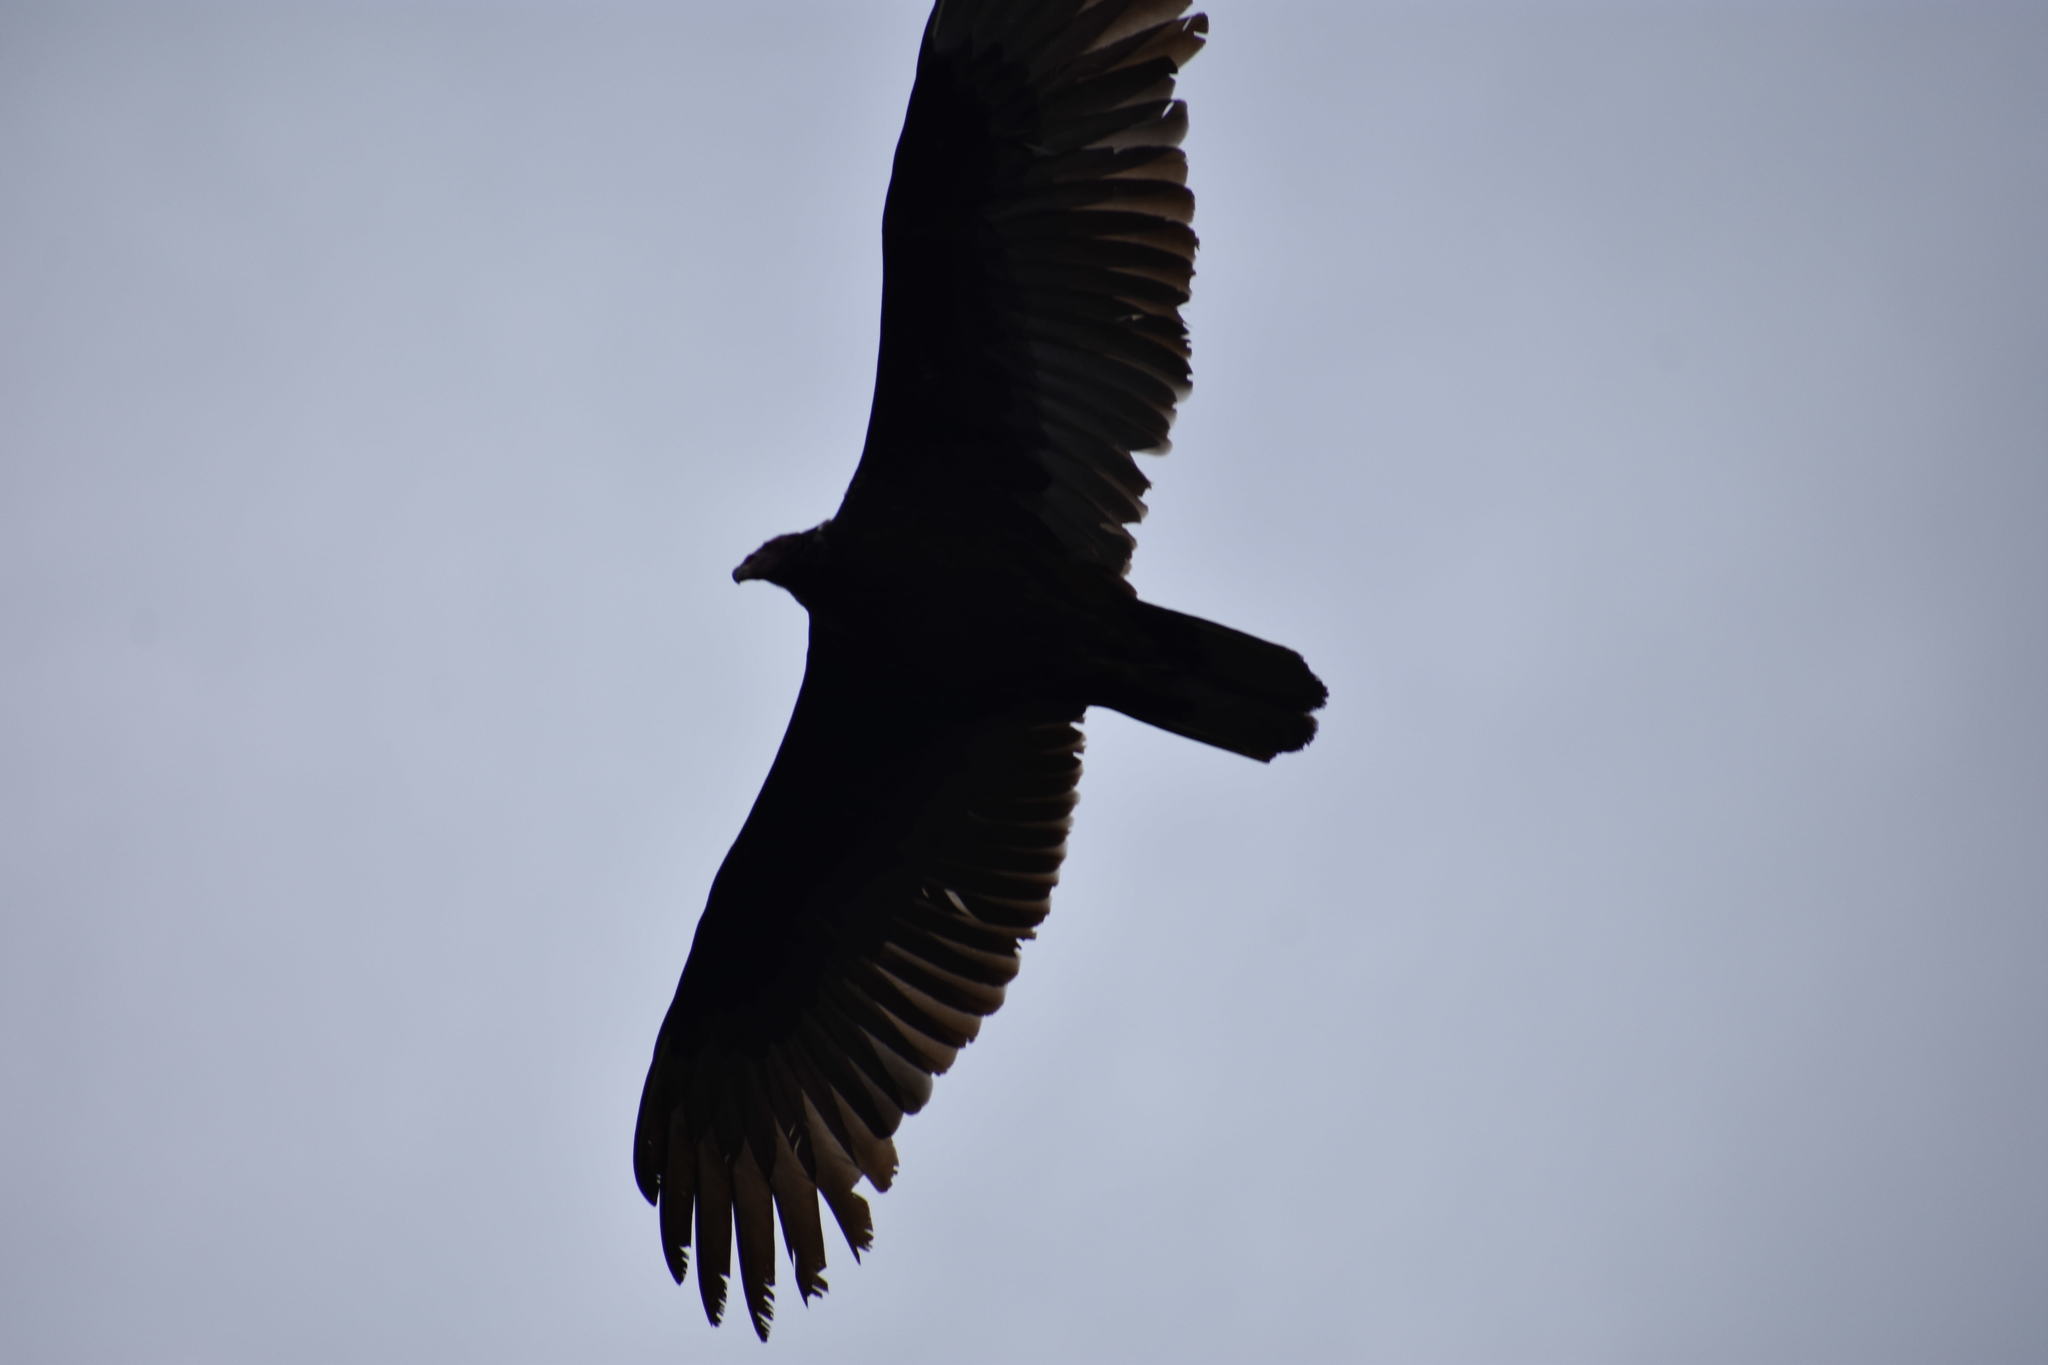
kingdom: Animalia
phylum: Chordata
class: Aves
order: Accipitriformes
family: Cathartidae
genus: Cathartes
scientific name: Cathartes aura
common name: Turkey vulture
